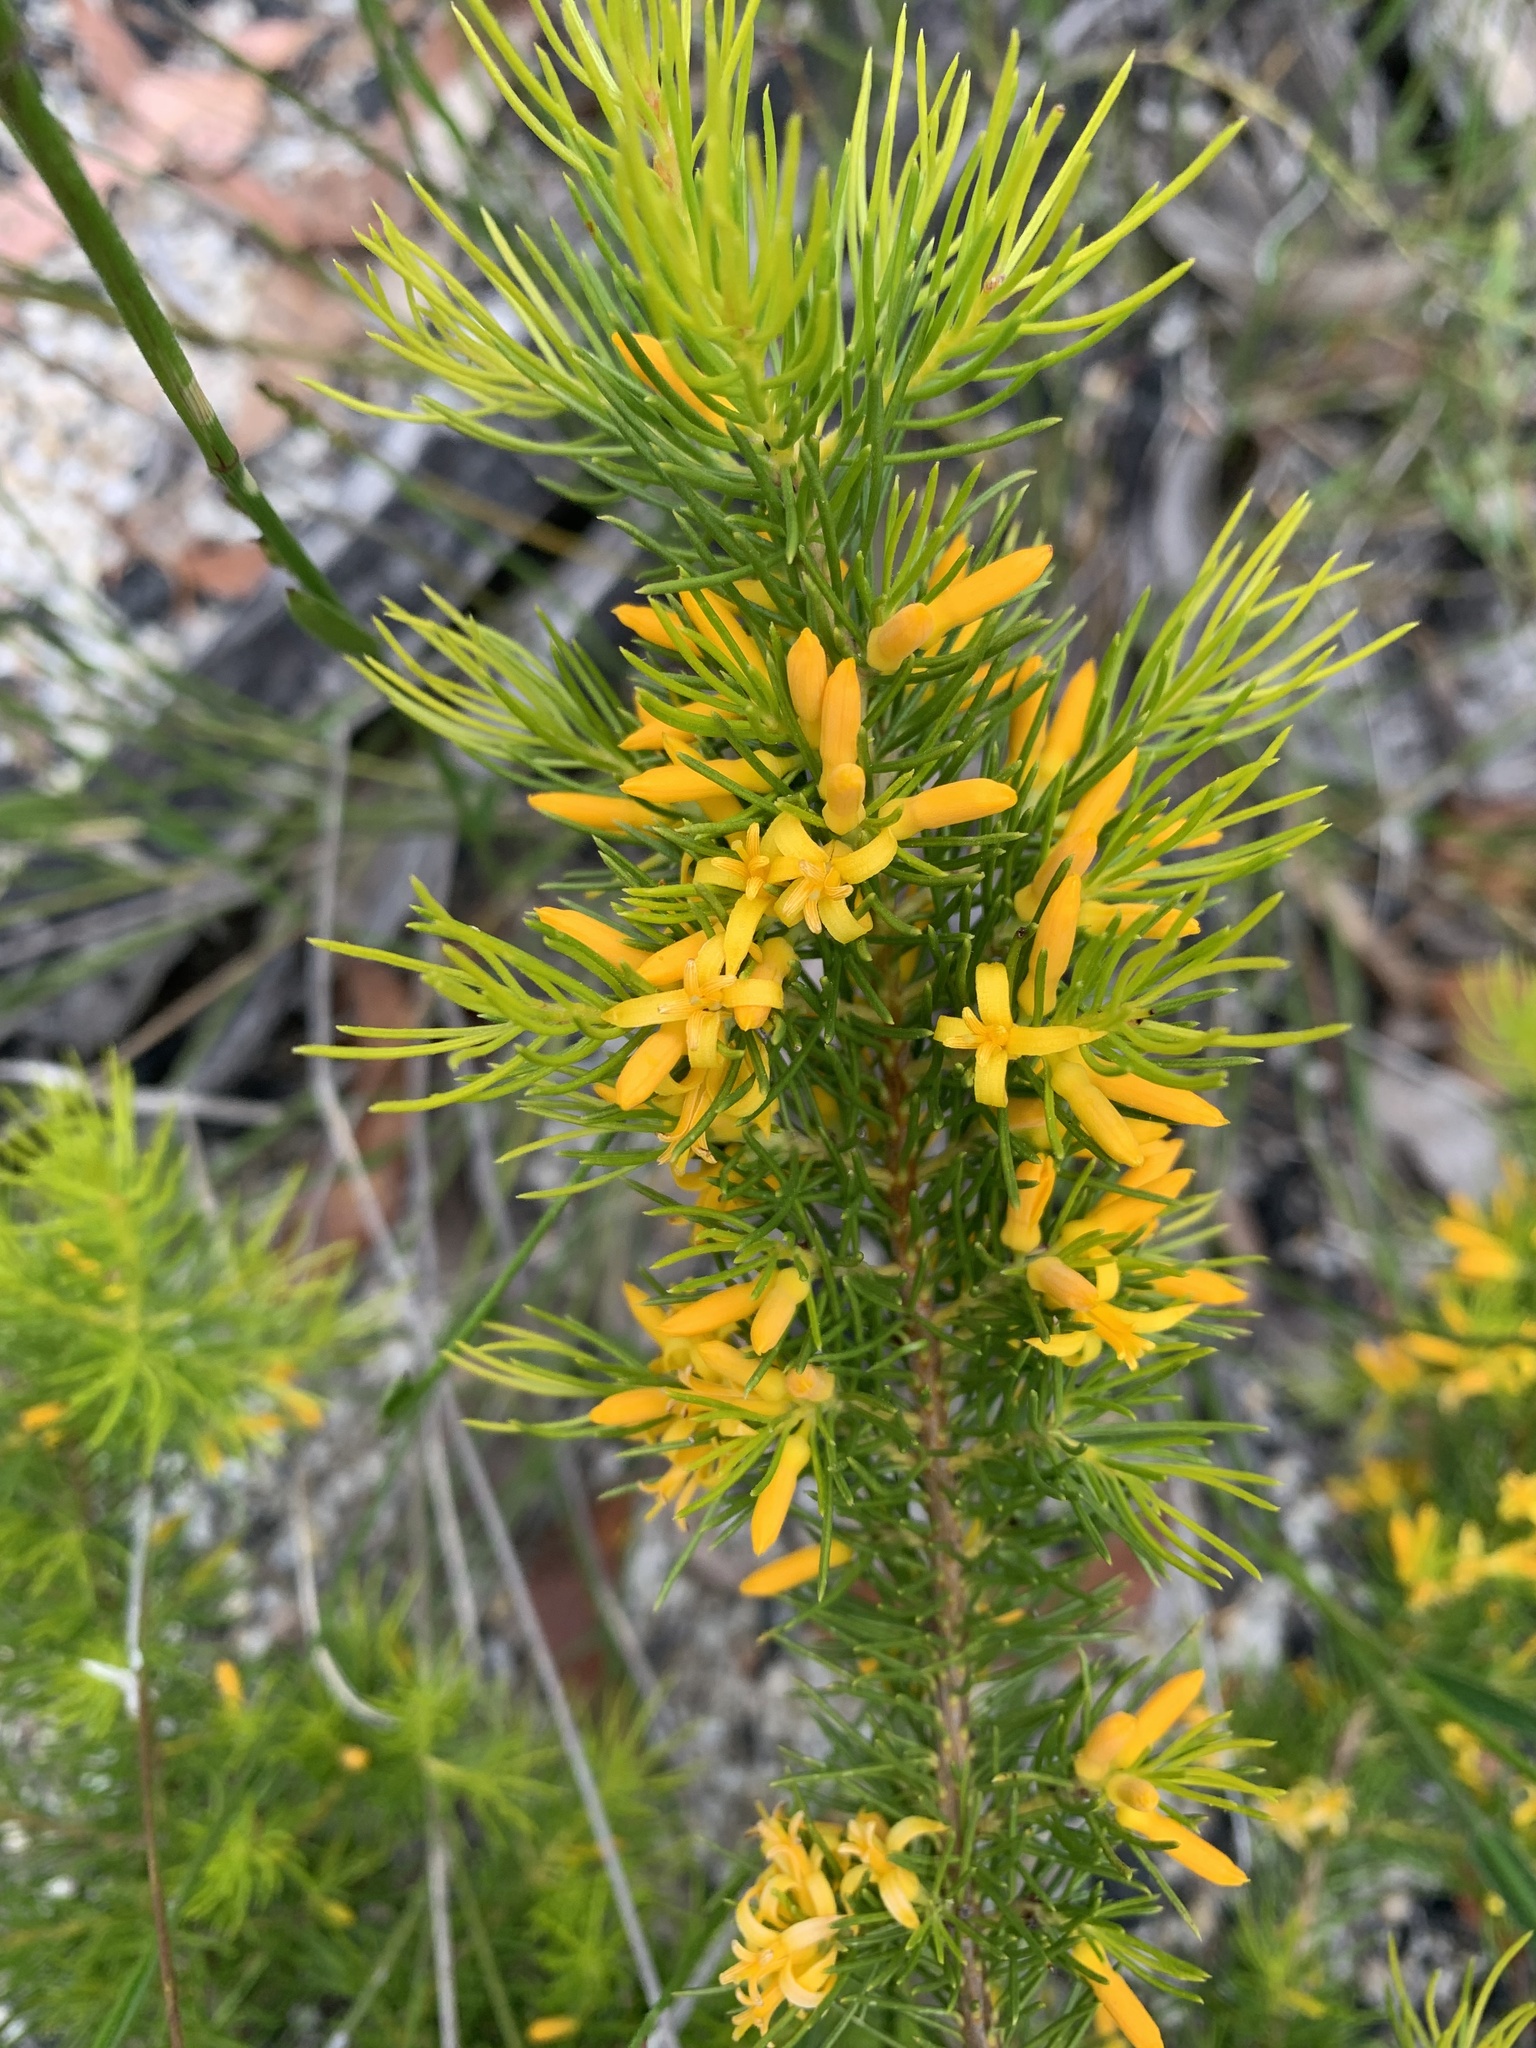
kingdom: Plantae
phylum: Tracheophyta
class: Magnoliopsida
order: Proteales
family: Proteaceae
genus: Persoonia
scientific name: Persoonia tenuifolia
